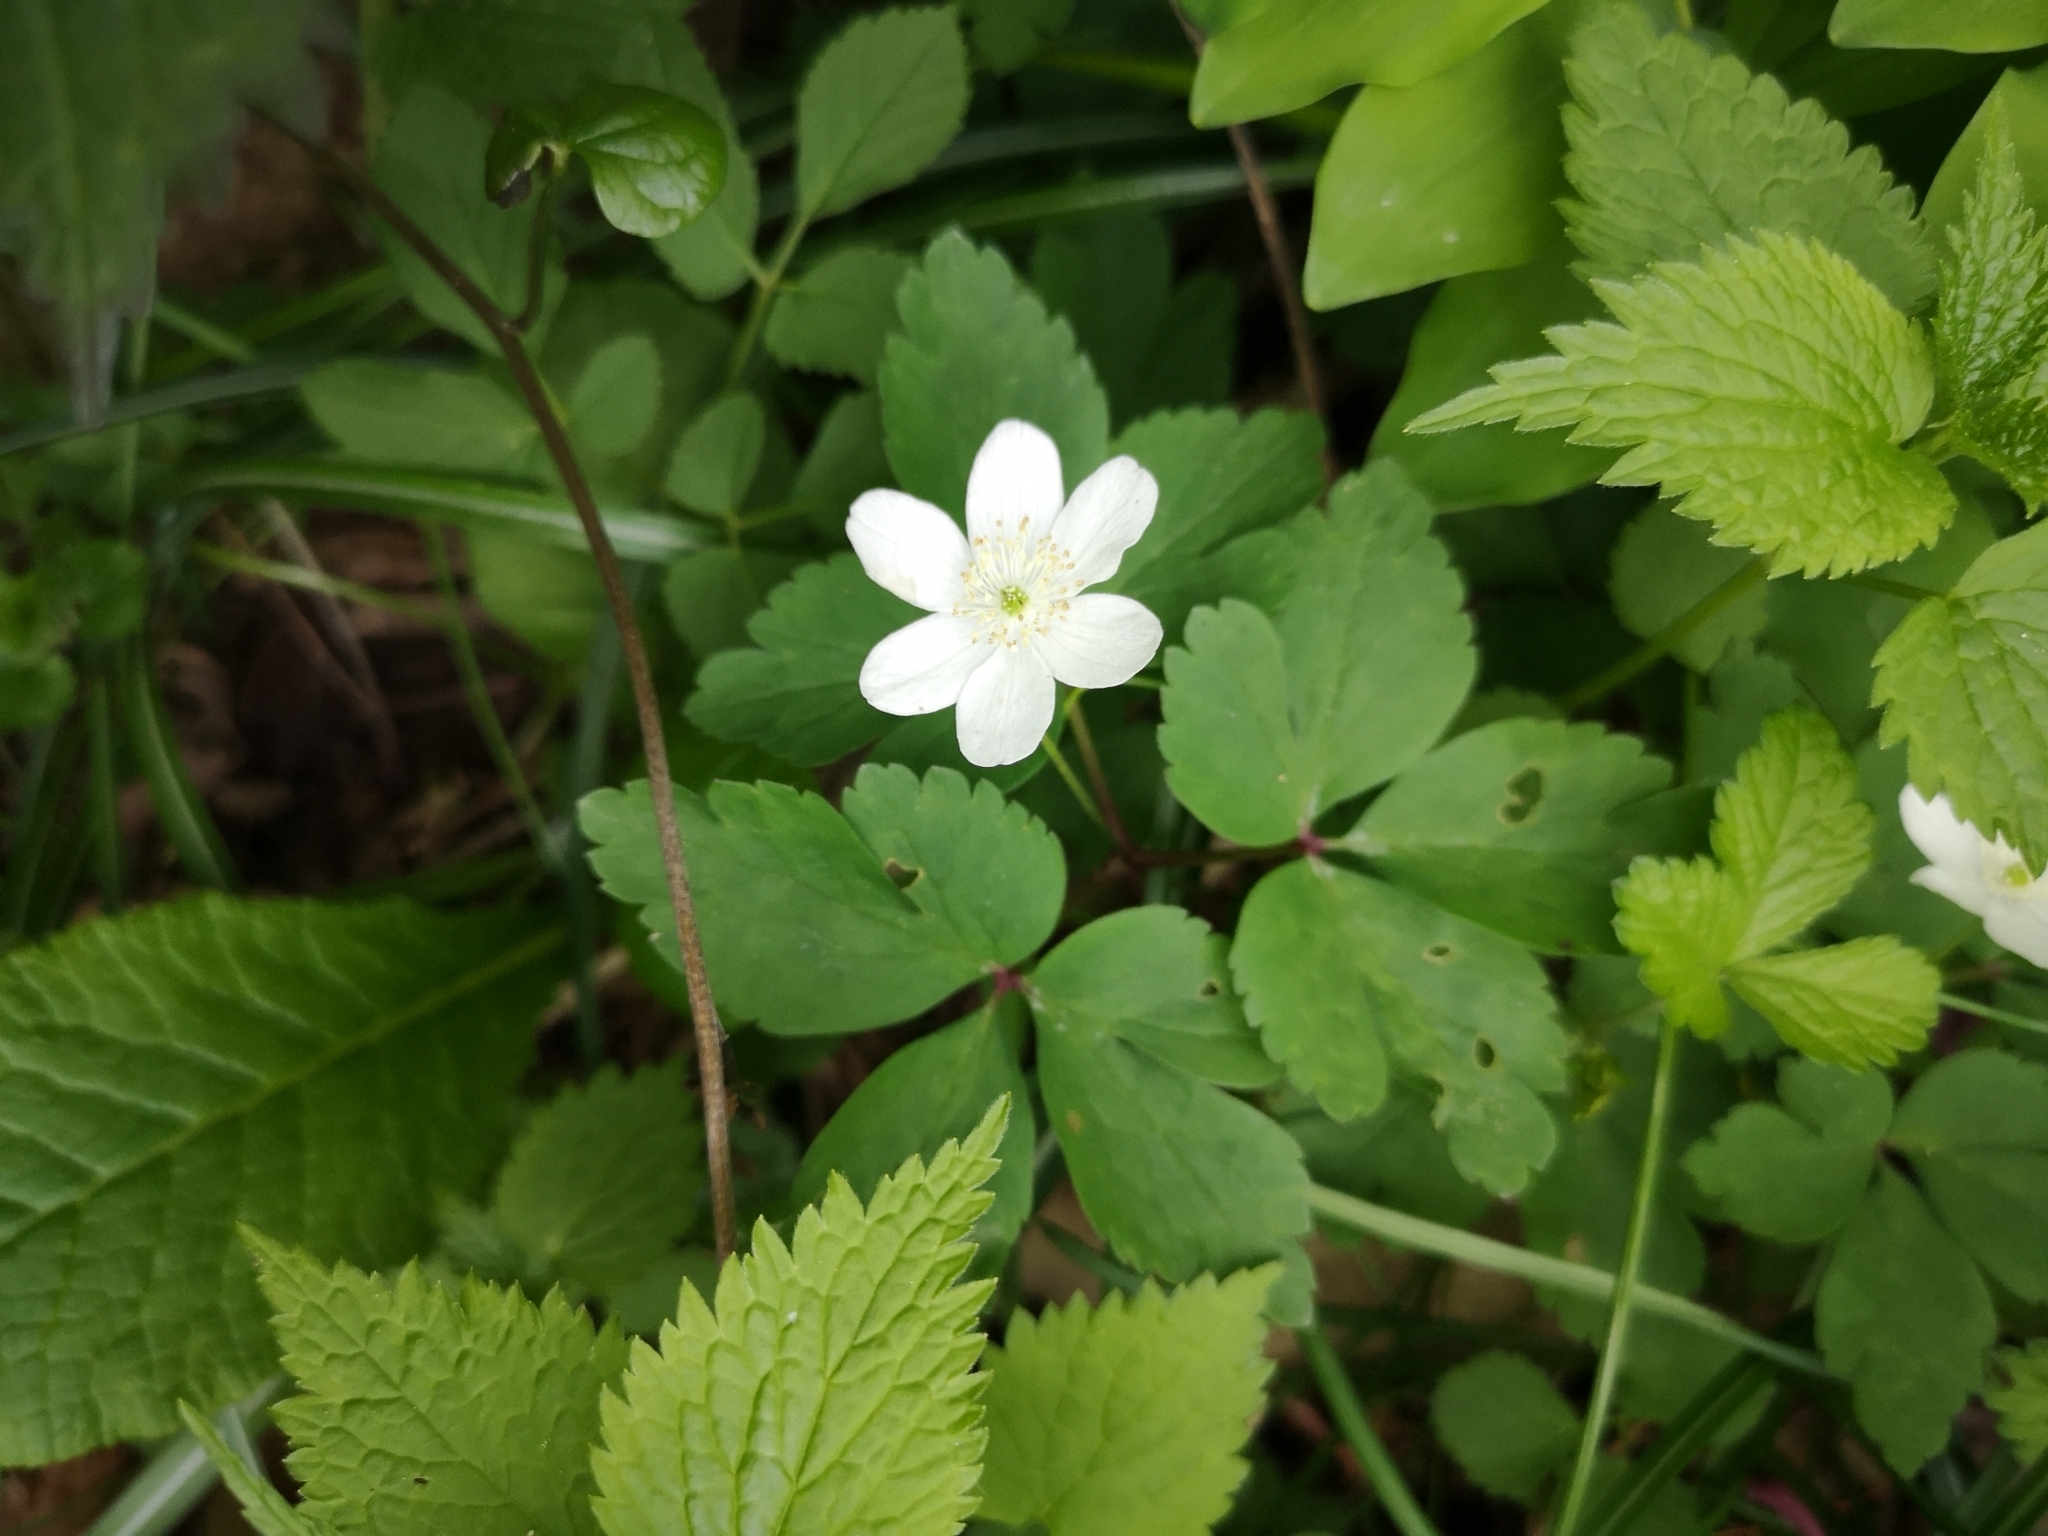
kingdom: Plantae
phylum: Tracheophyta
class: Magnoliopsida
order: Ranunculales
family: Ranunculaceae
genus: Anemone
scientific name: Anemone pittonii
